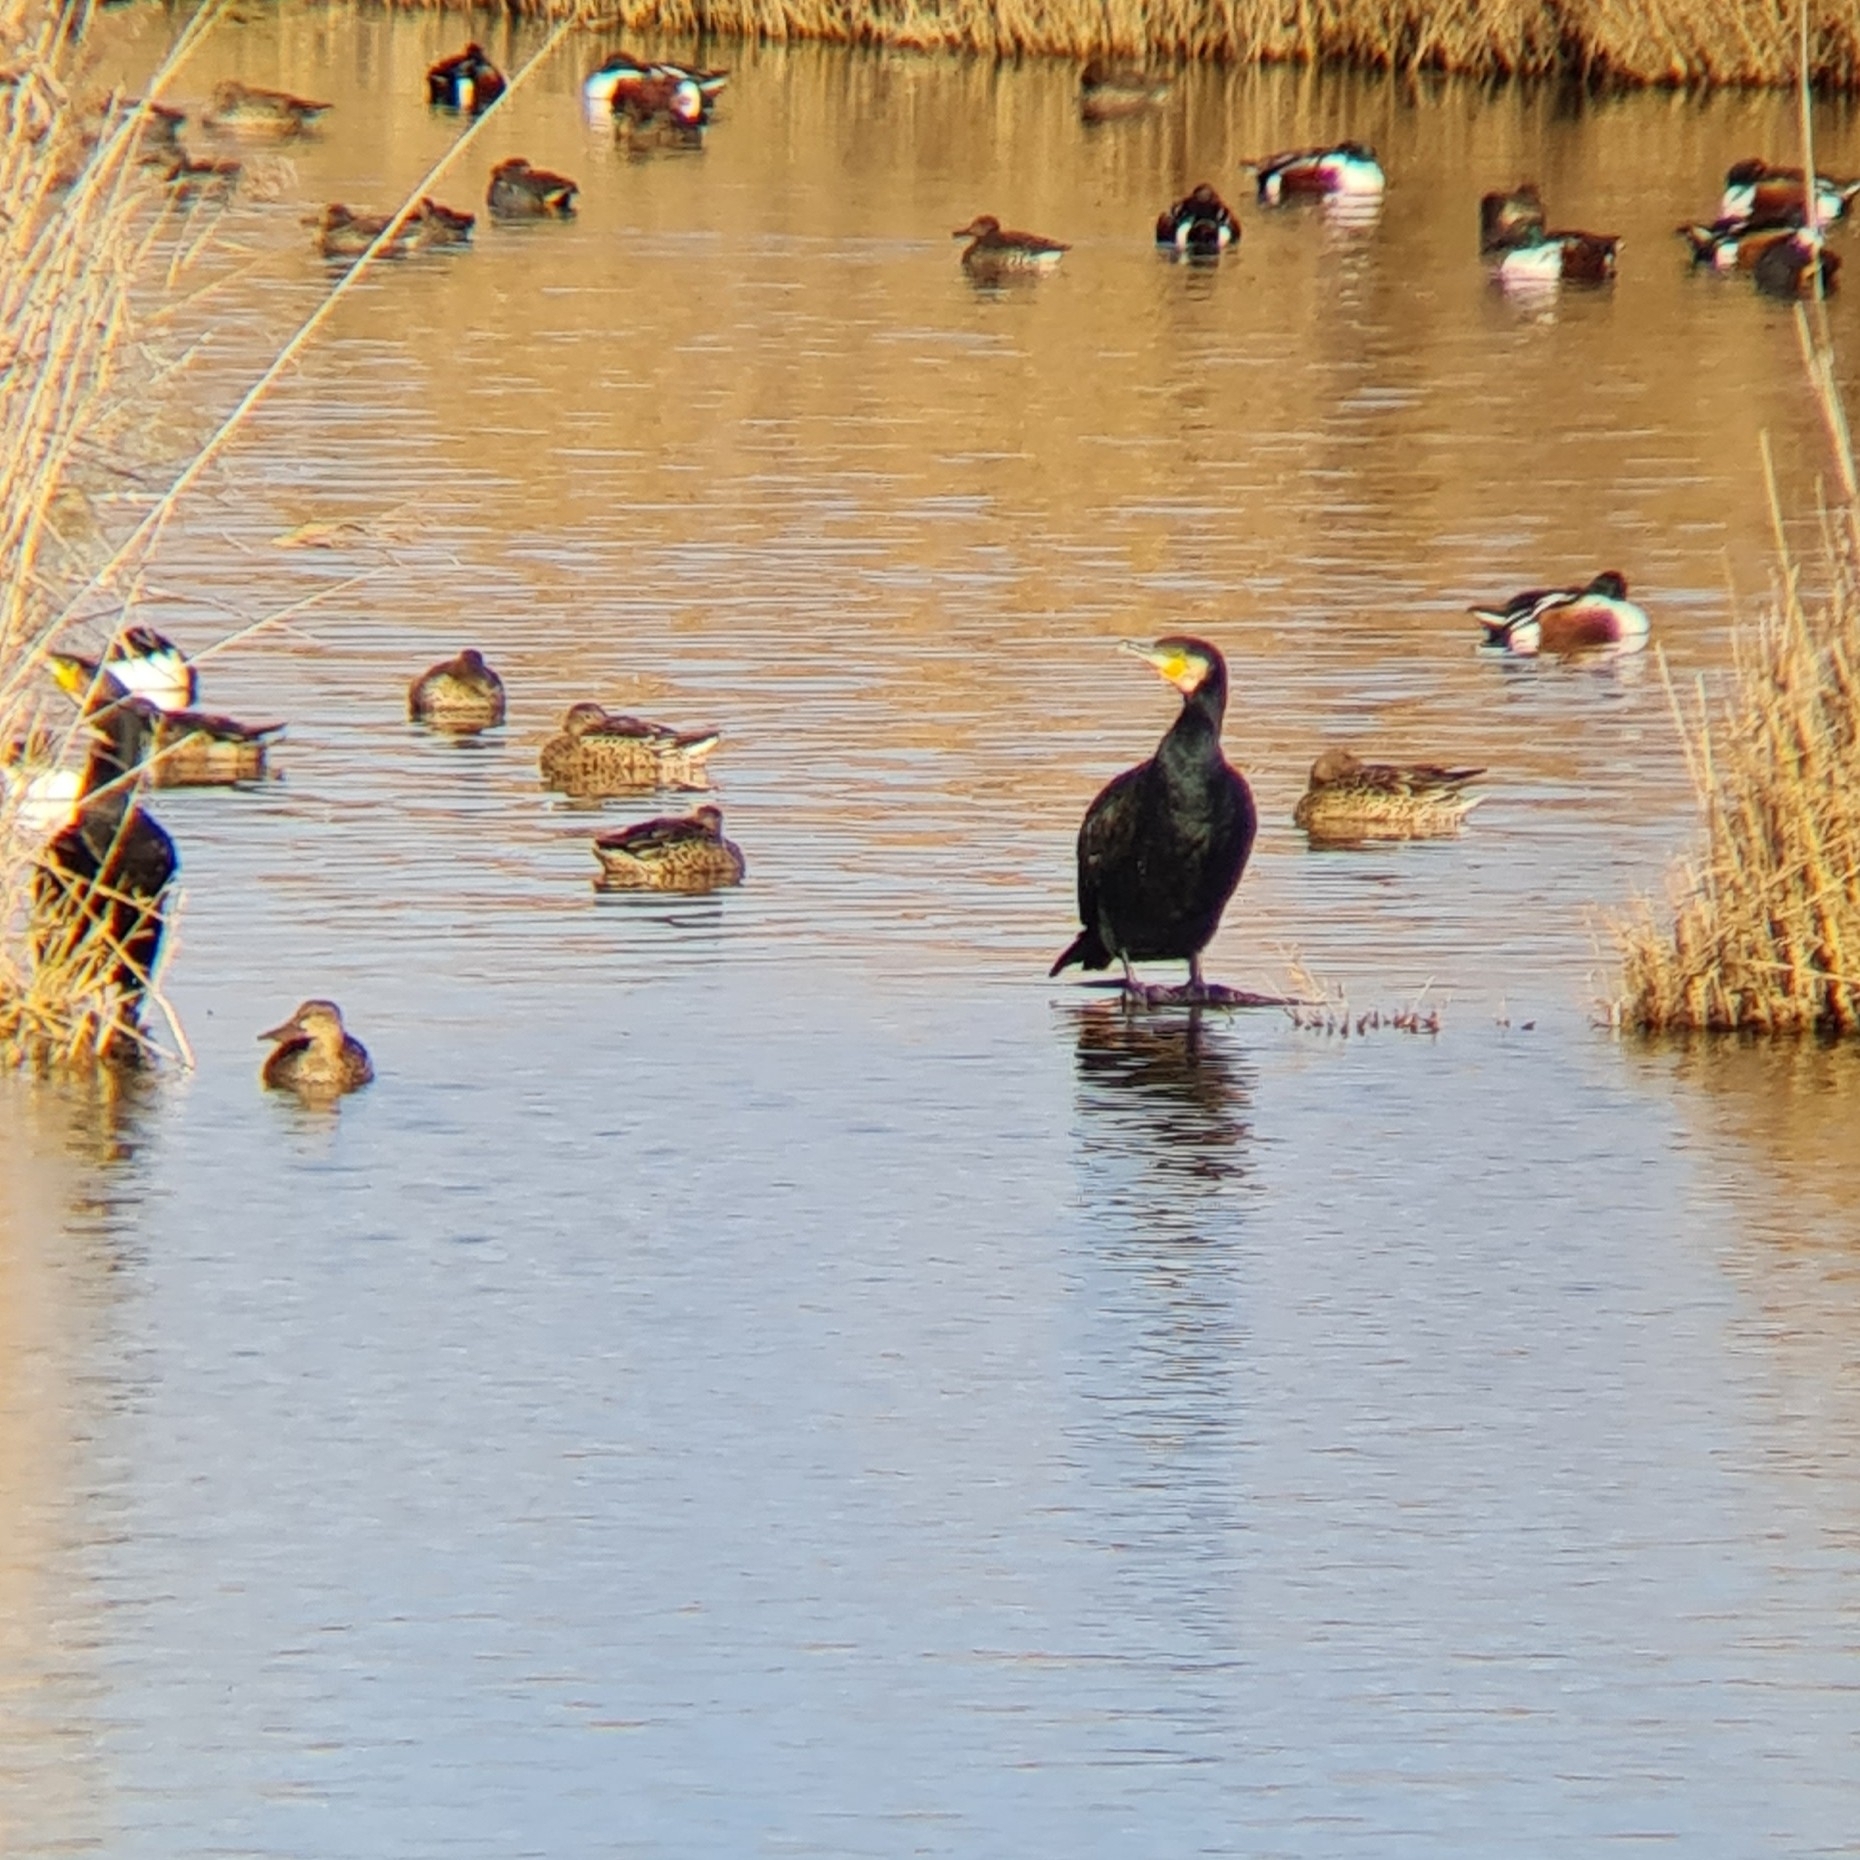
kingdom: Animalia
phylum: Chordata
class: Aves
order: Suliformes
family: Phalacrocoracidae
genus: Phalacrocorax
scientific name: Phalacrocorax carbo
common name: Great cormorant
